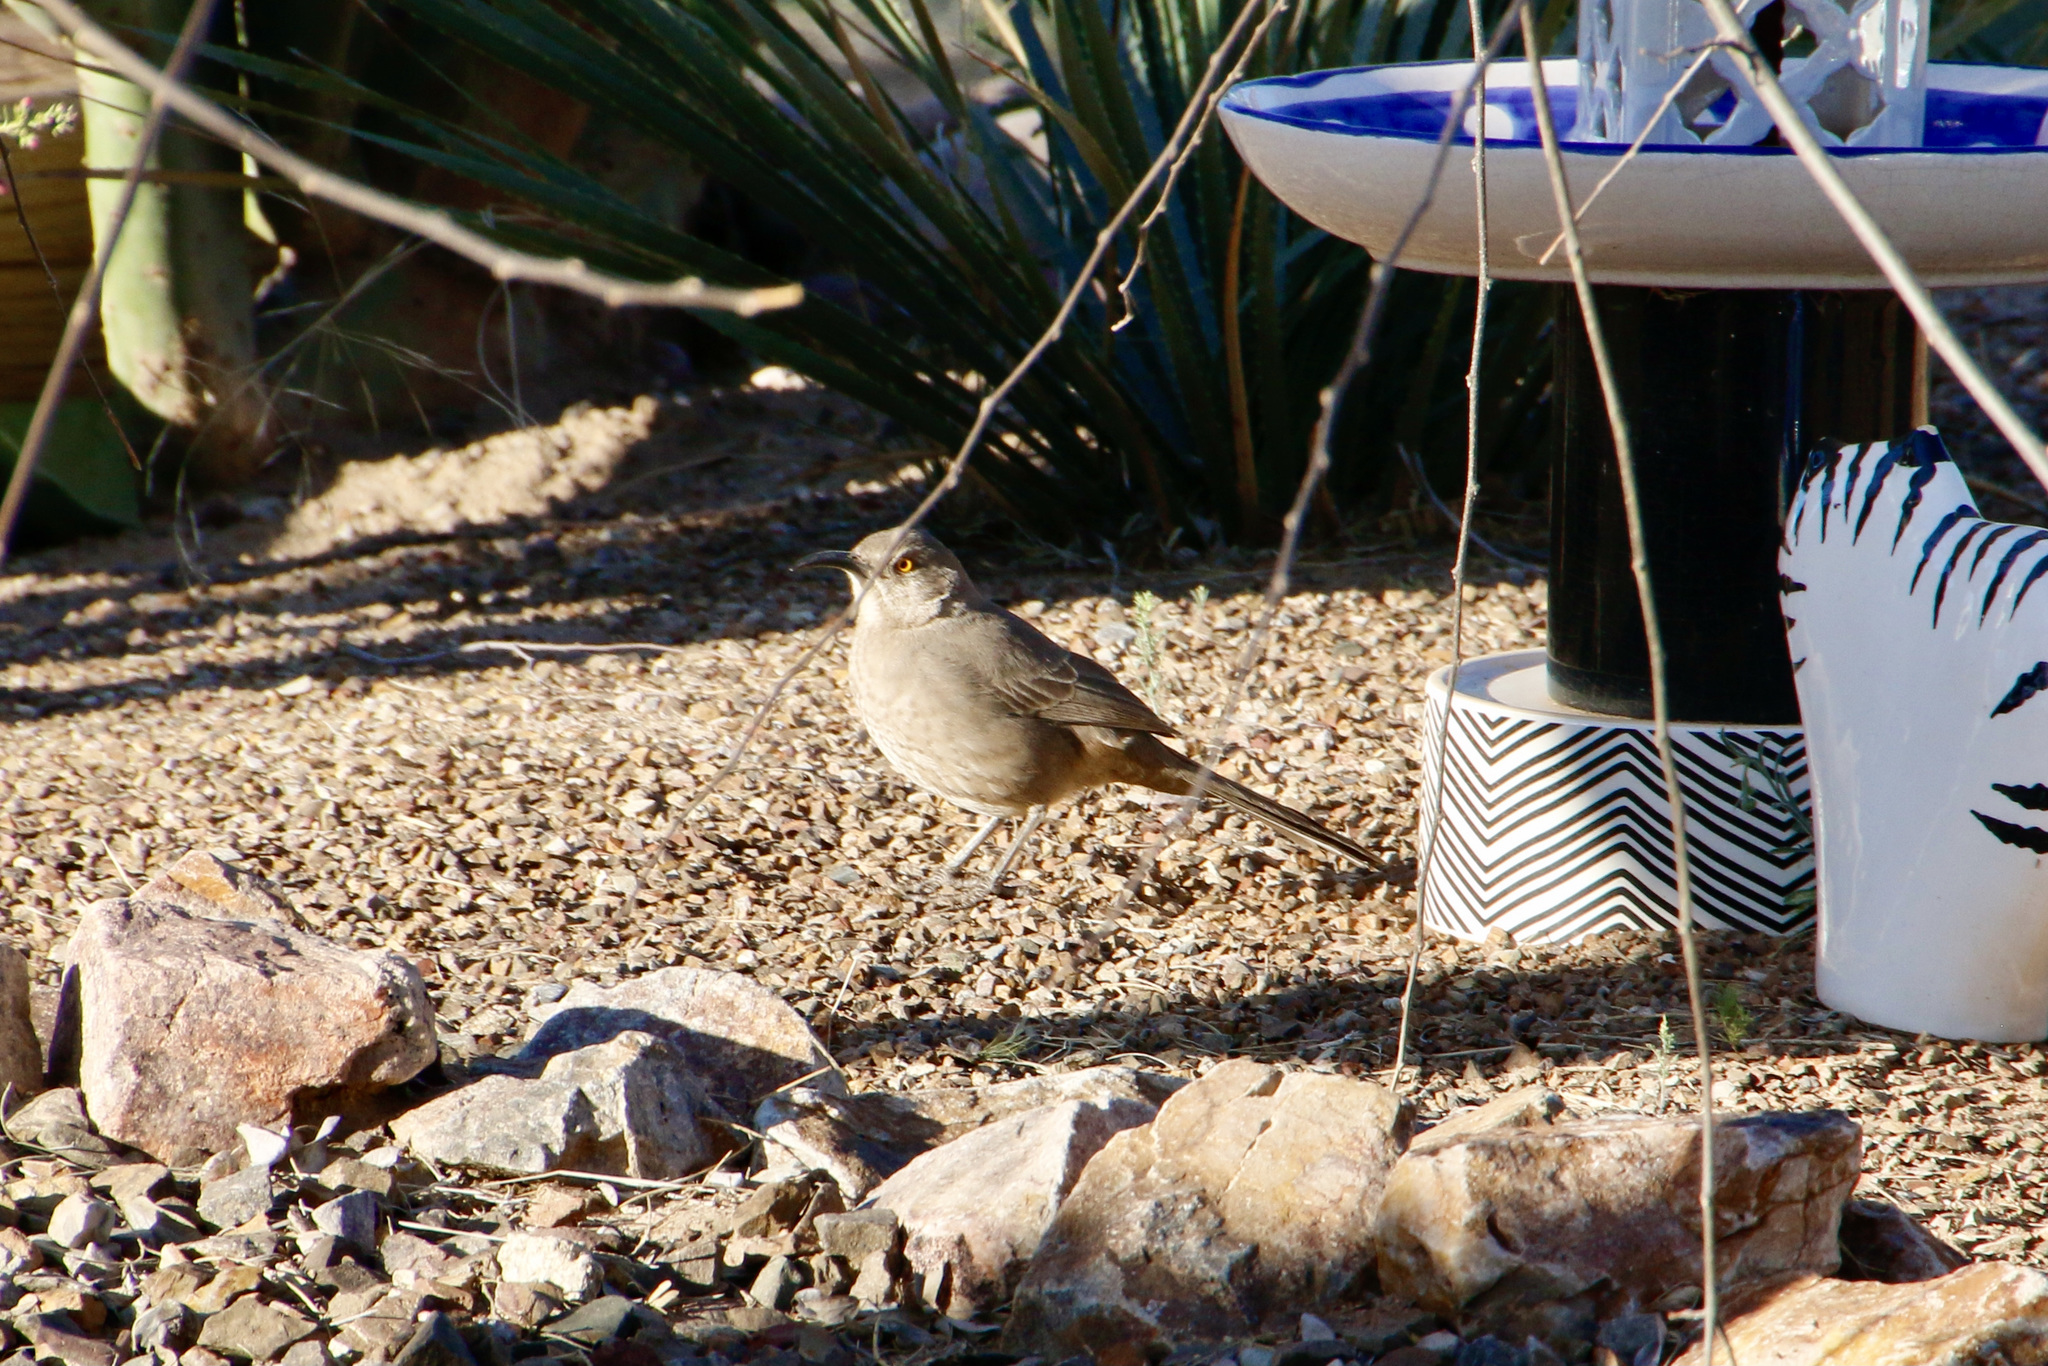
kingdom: Animalia
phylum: Chordata
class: Aves
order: Passeriformes
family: Mimidae
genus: Toxostoma
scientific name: Toxostoma curvirostre
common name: Curve-billed thrasher
